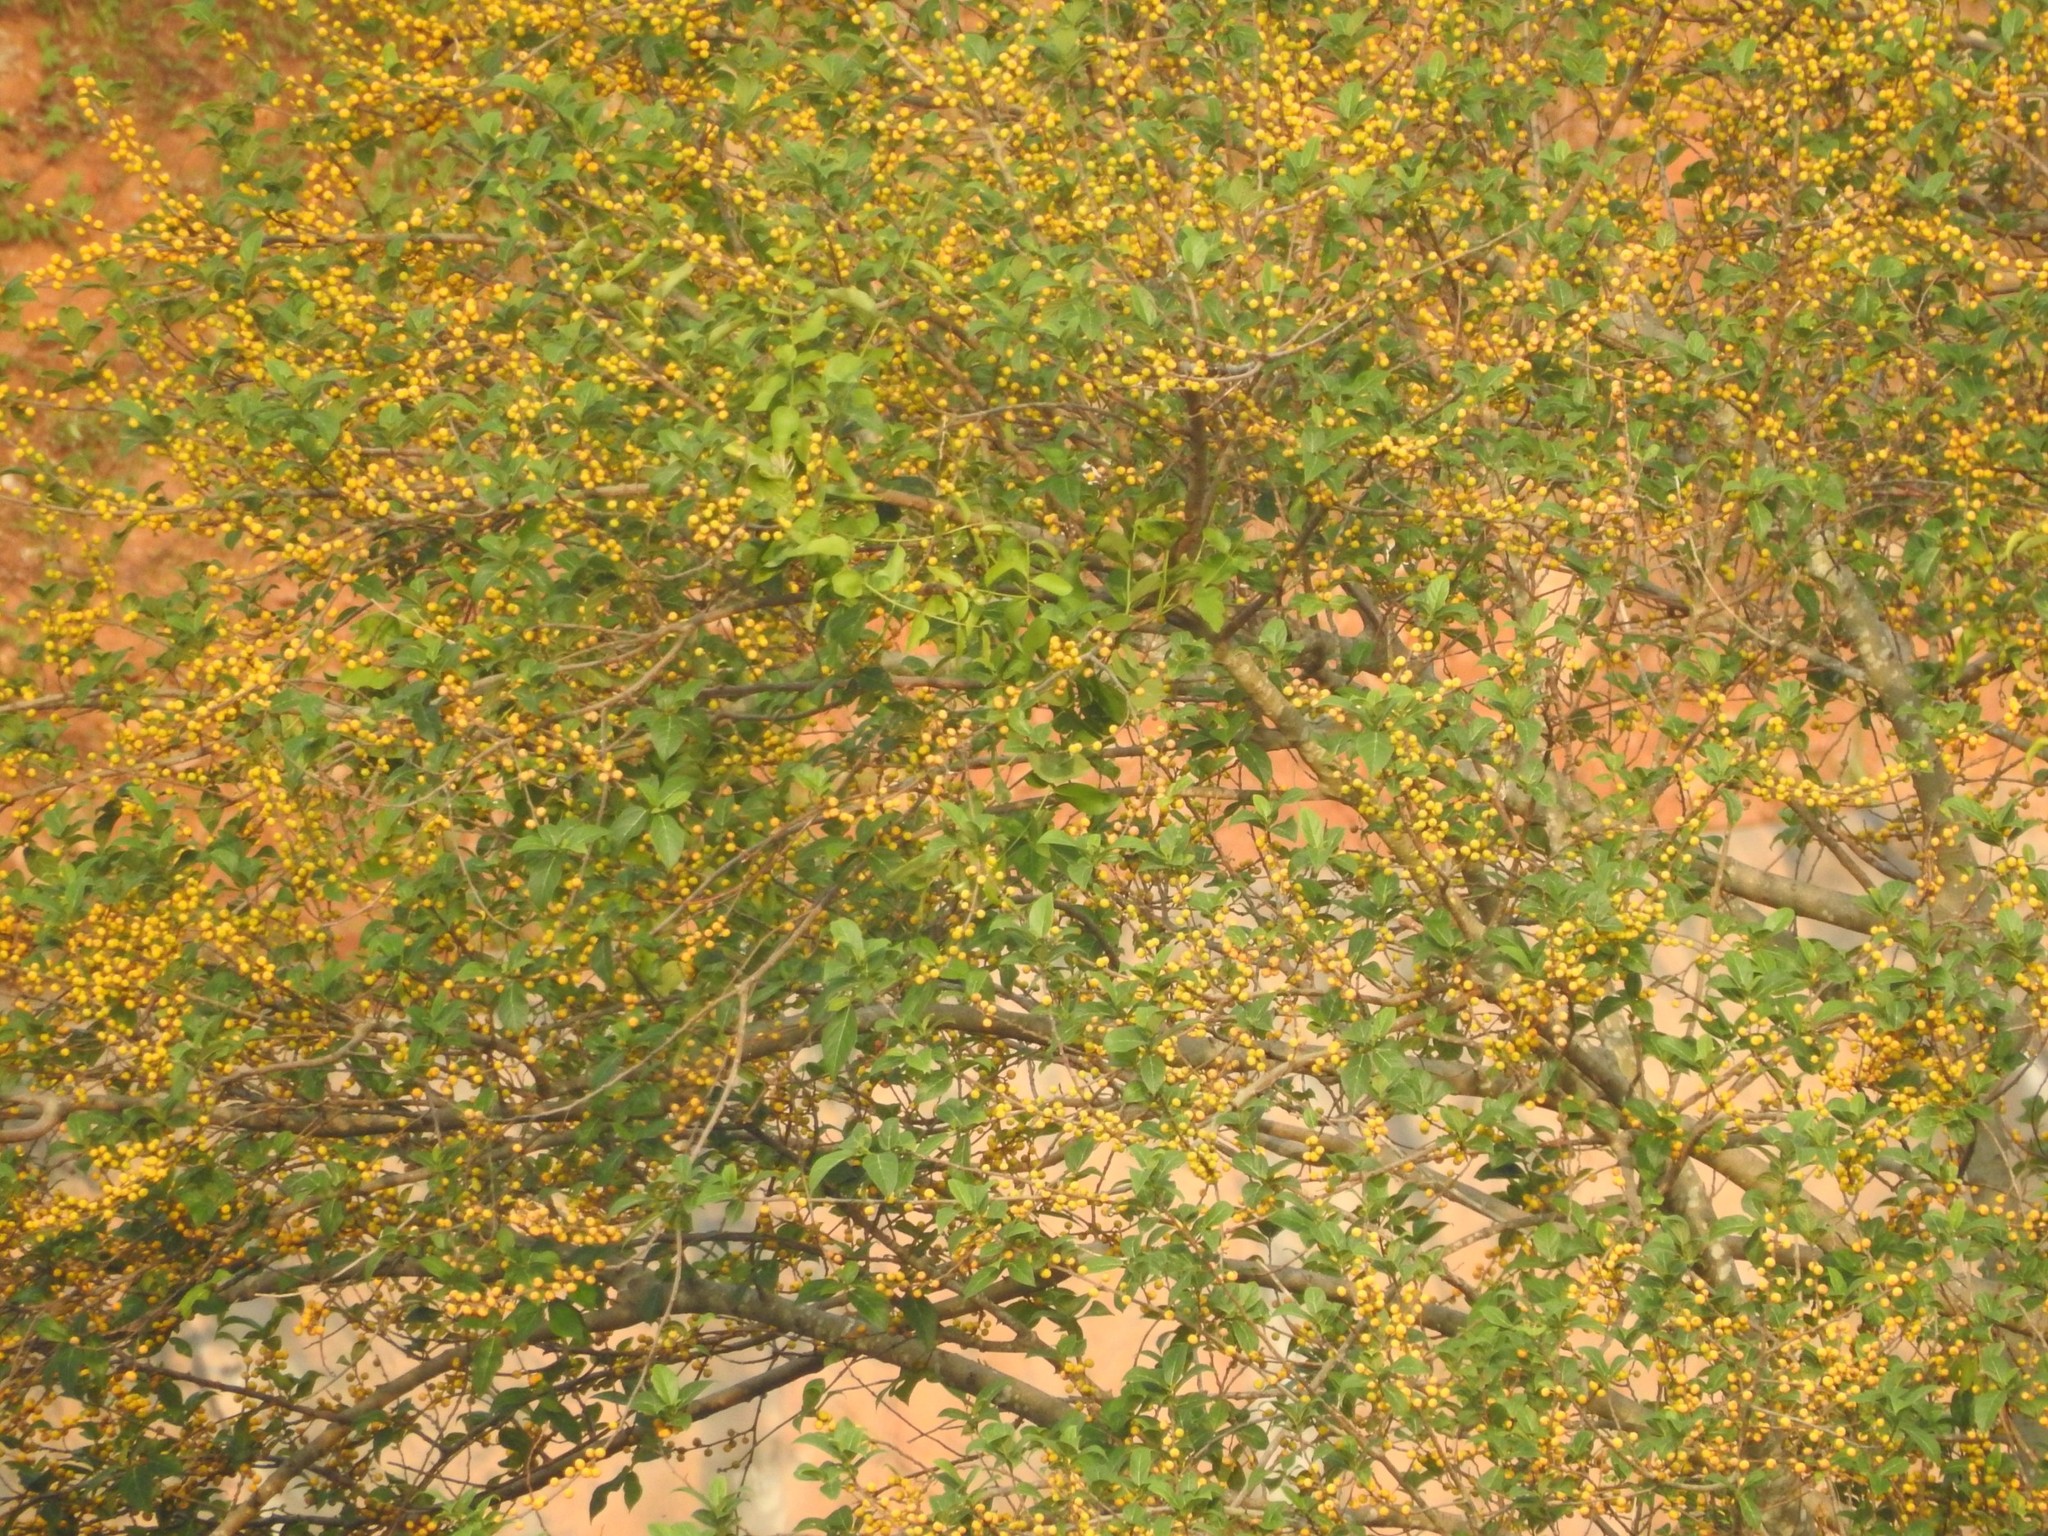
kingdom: Plantae
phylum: Tracheophyta
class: Magnoliopsida
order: Rosales
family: Moraceae
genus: Ficus
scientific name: Ficus exasperata
